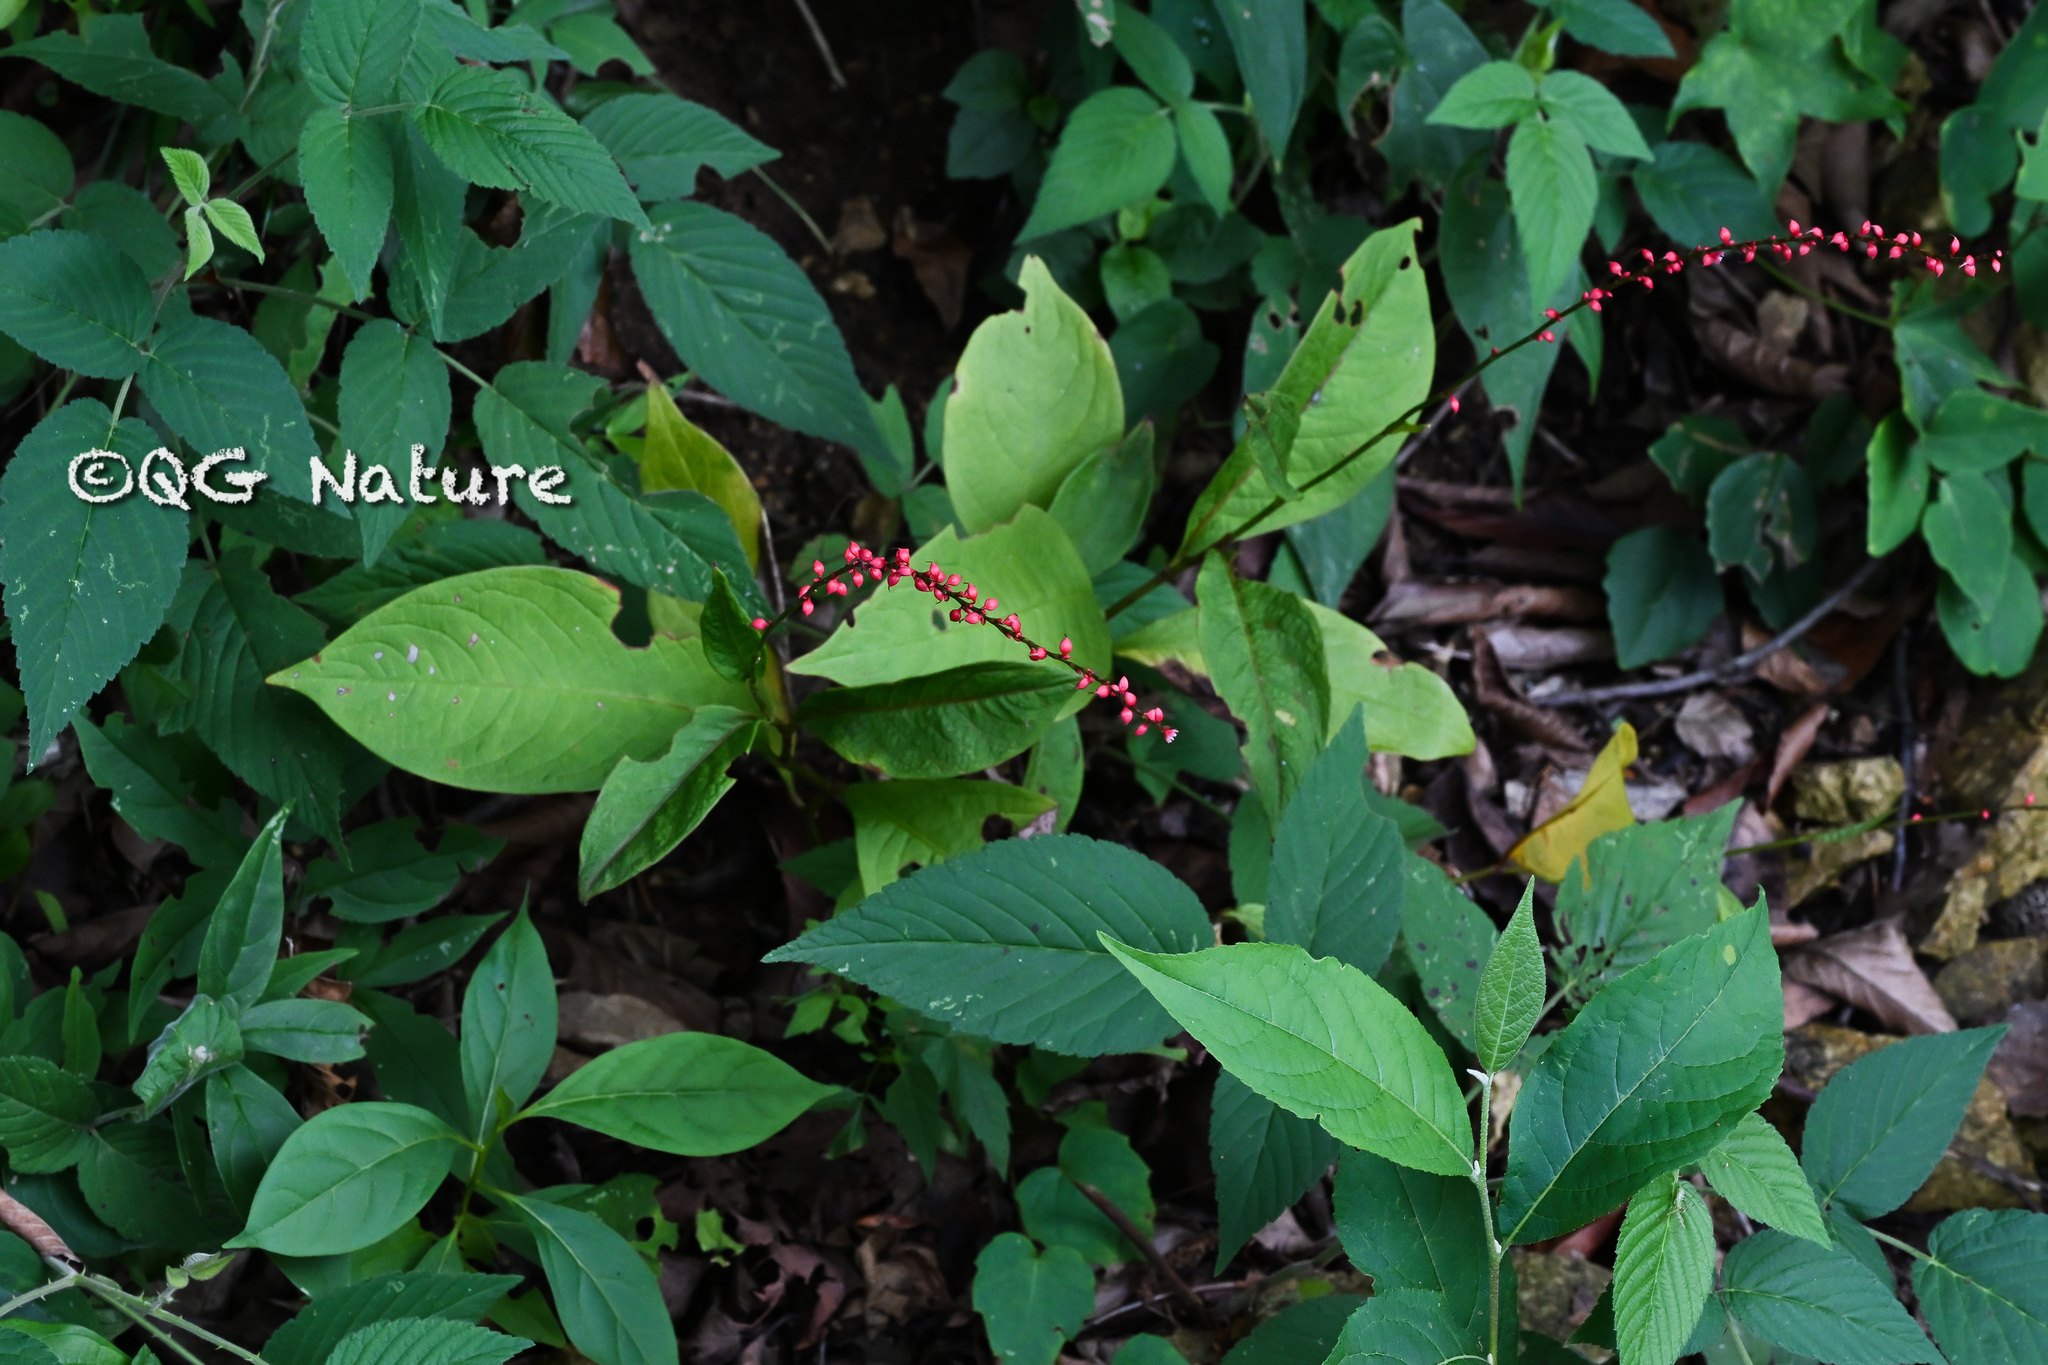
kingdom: Plantae
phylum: Tracheophyta
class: Magnoliopsida
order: Caryophyllales
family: Polygonaceae
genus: Persicaria
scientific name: Persicaria filiformis
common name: Asian jumpseed
